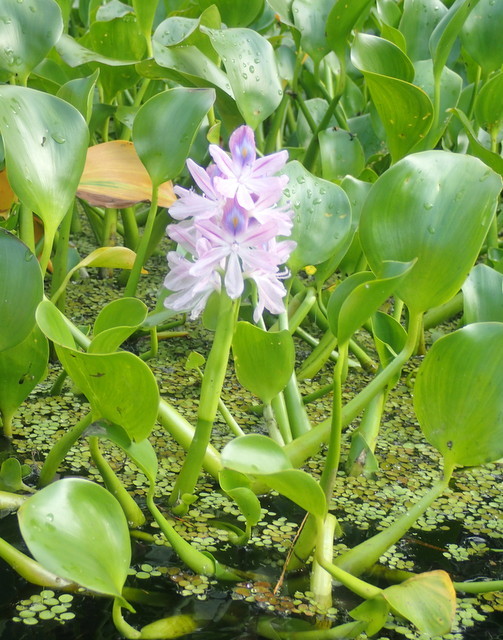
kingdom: Plantae
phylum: Tracheophyta
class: Liliopsida
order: Commelinales
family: Pontederiaceae
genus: Pontederia
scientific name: Pontederia crassipes
